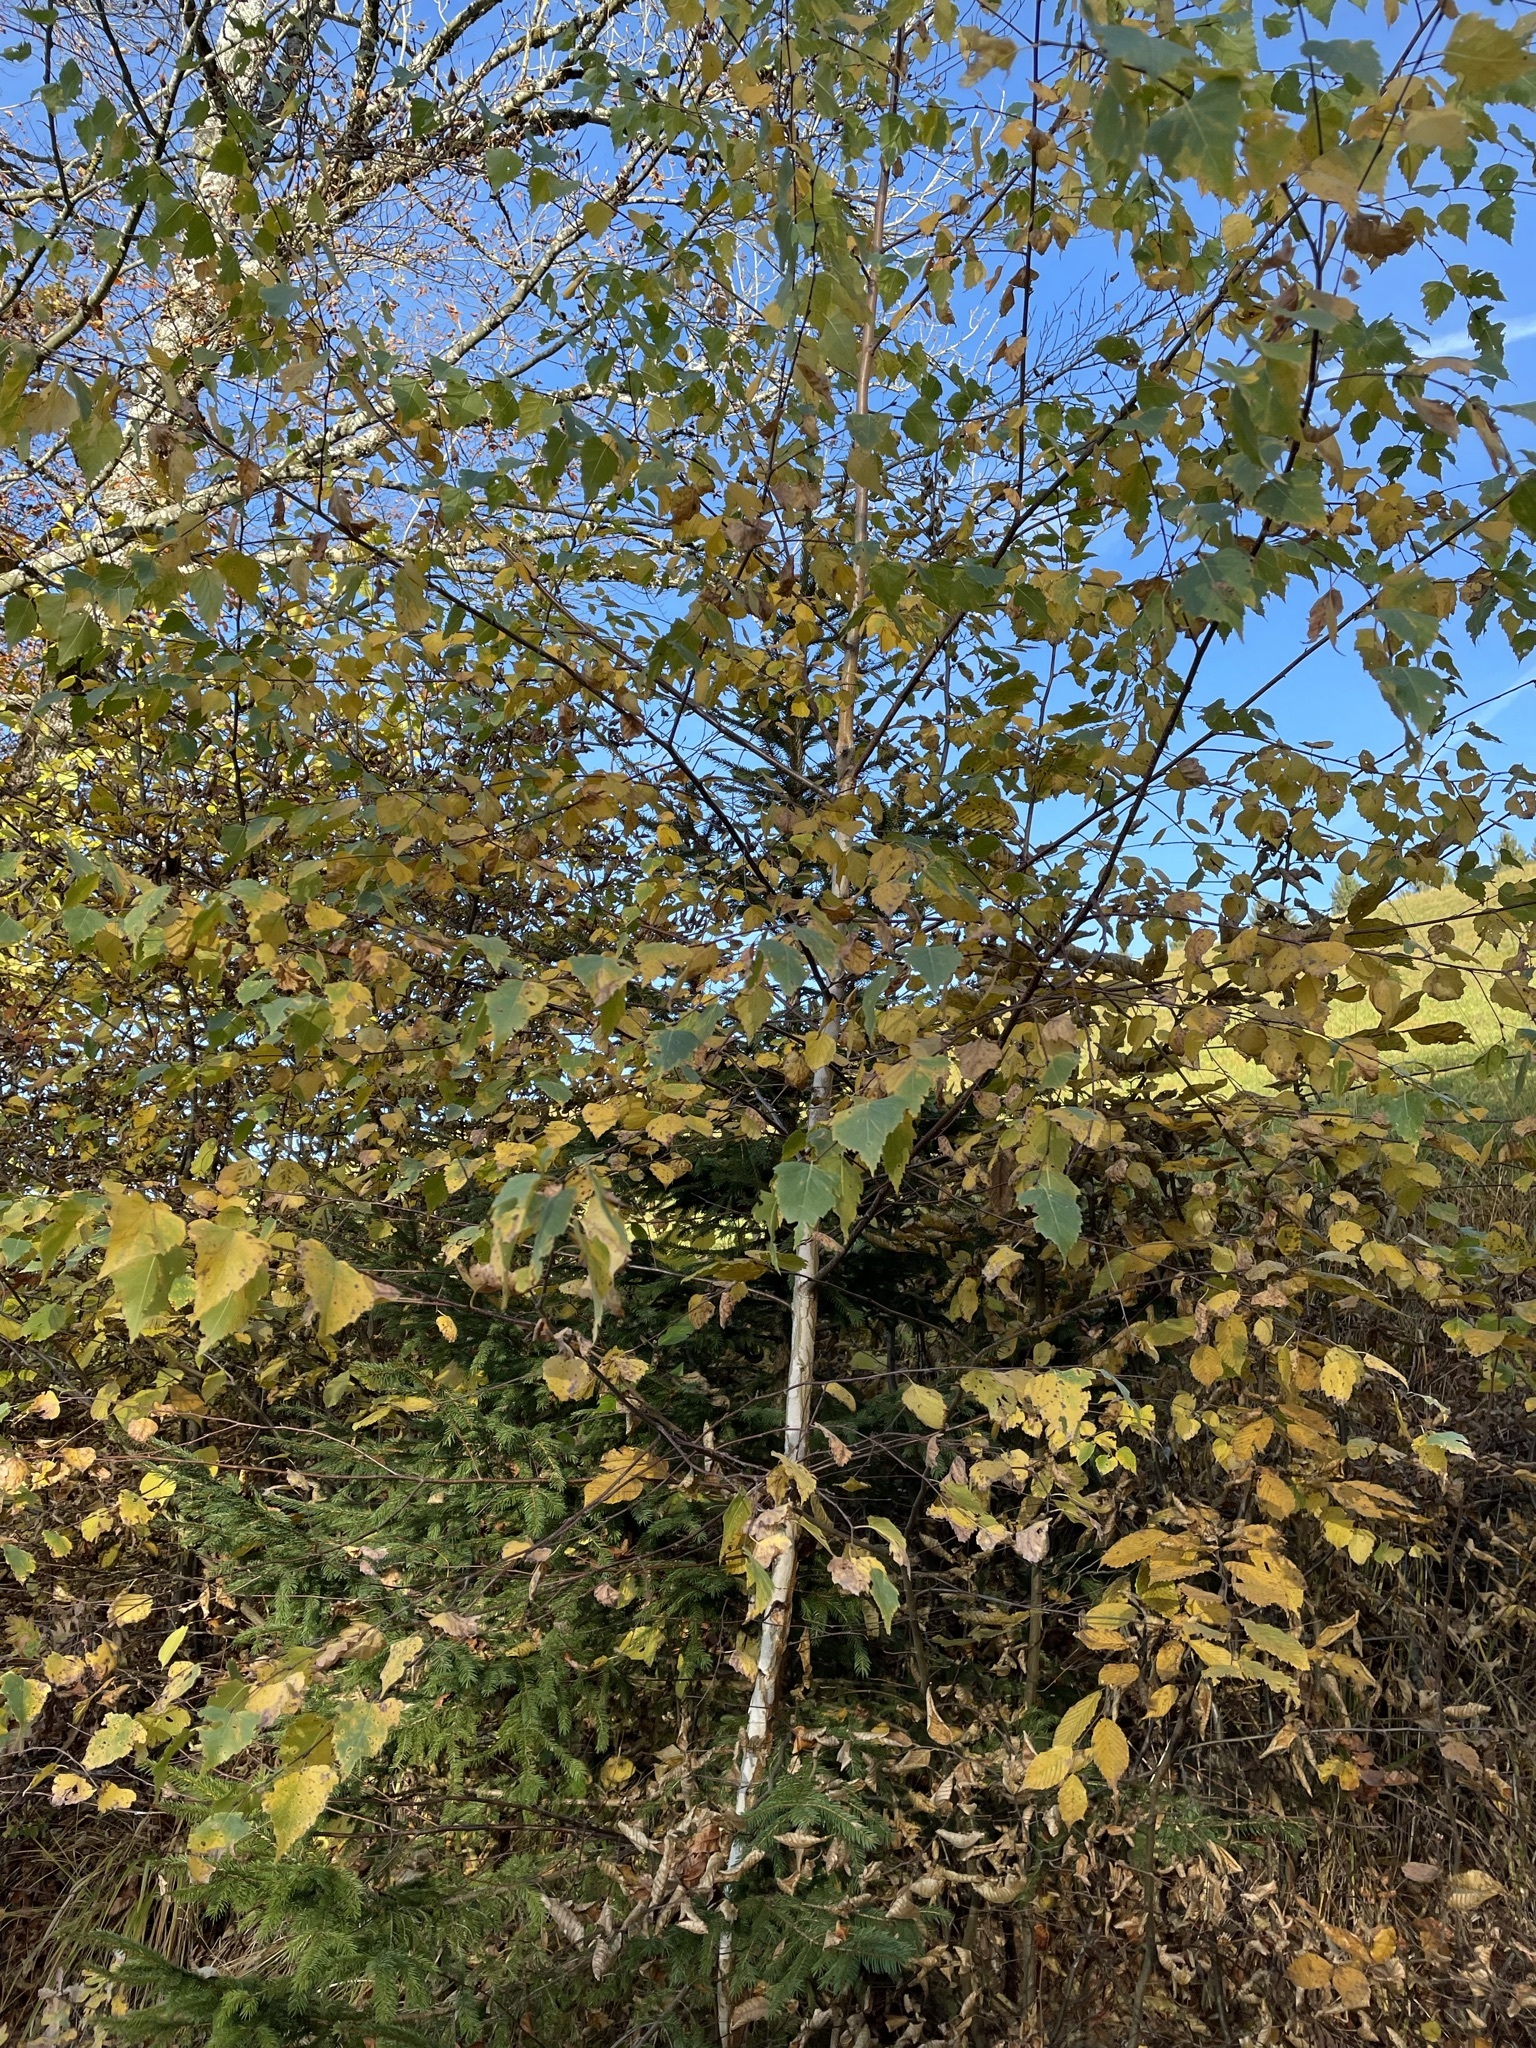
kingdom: Plantae
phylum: Tracheophyta
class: Magnoliopsida
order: Fagales
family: Betulaceae
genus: Betula
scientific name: Betula pendula
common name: Silver birch
